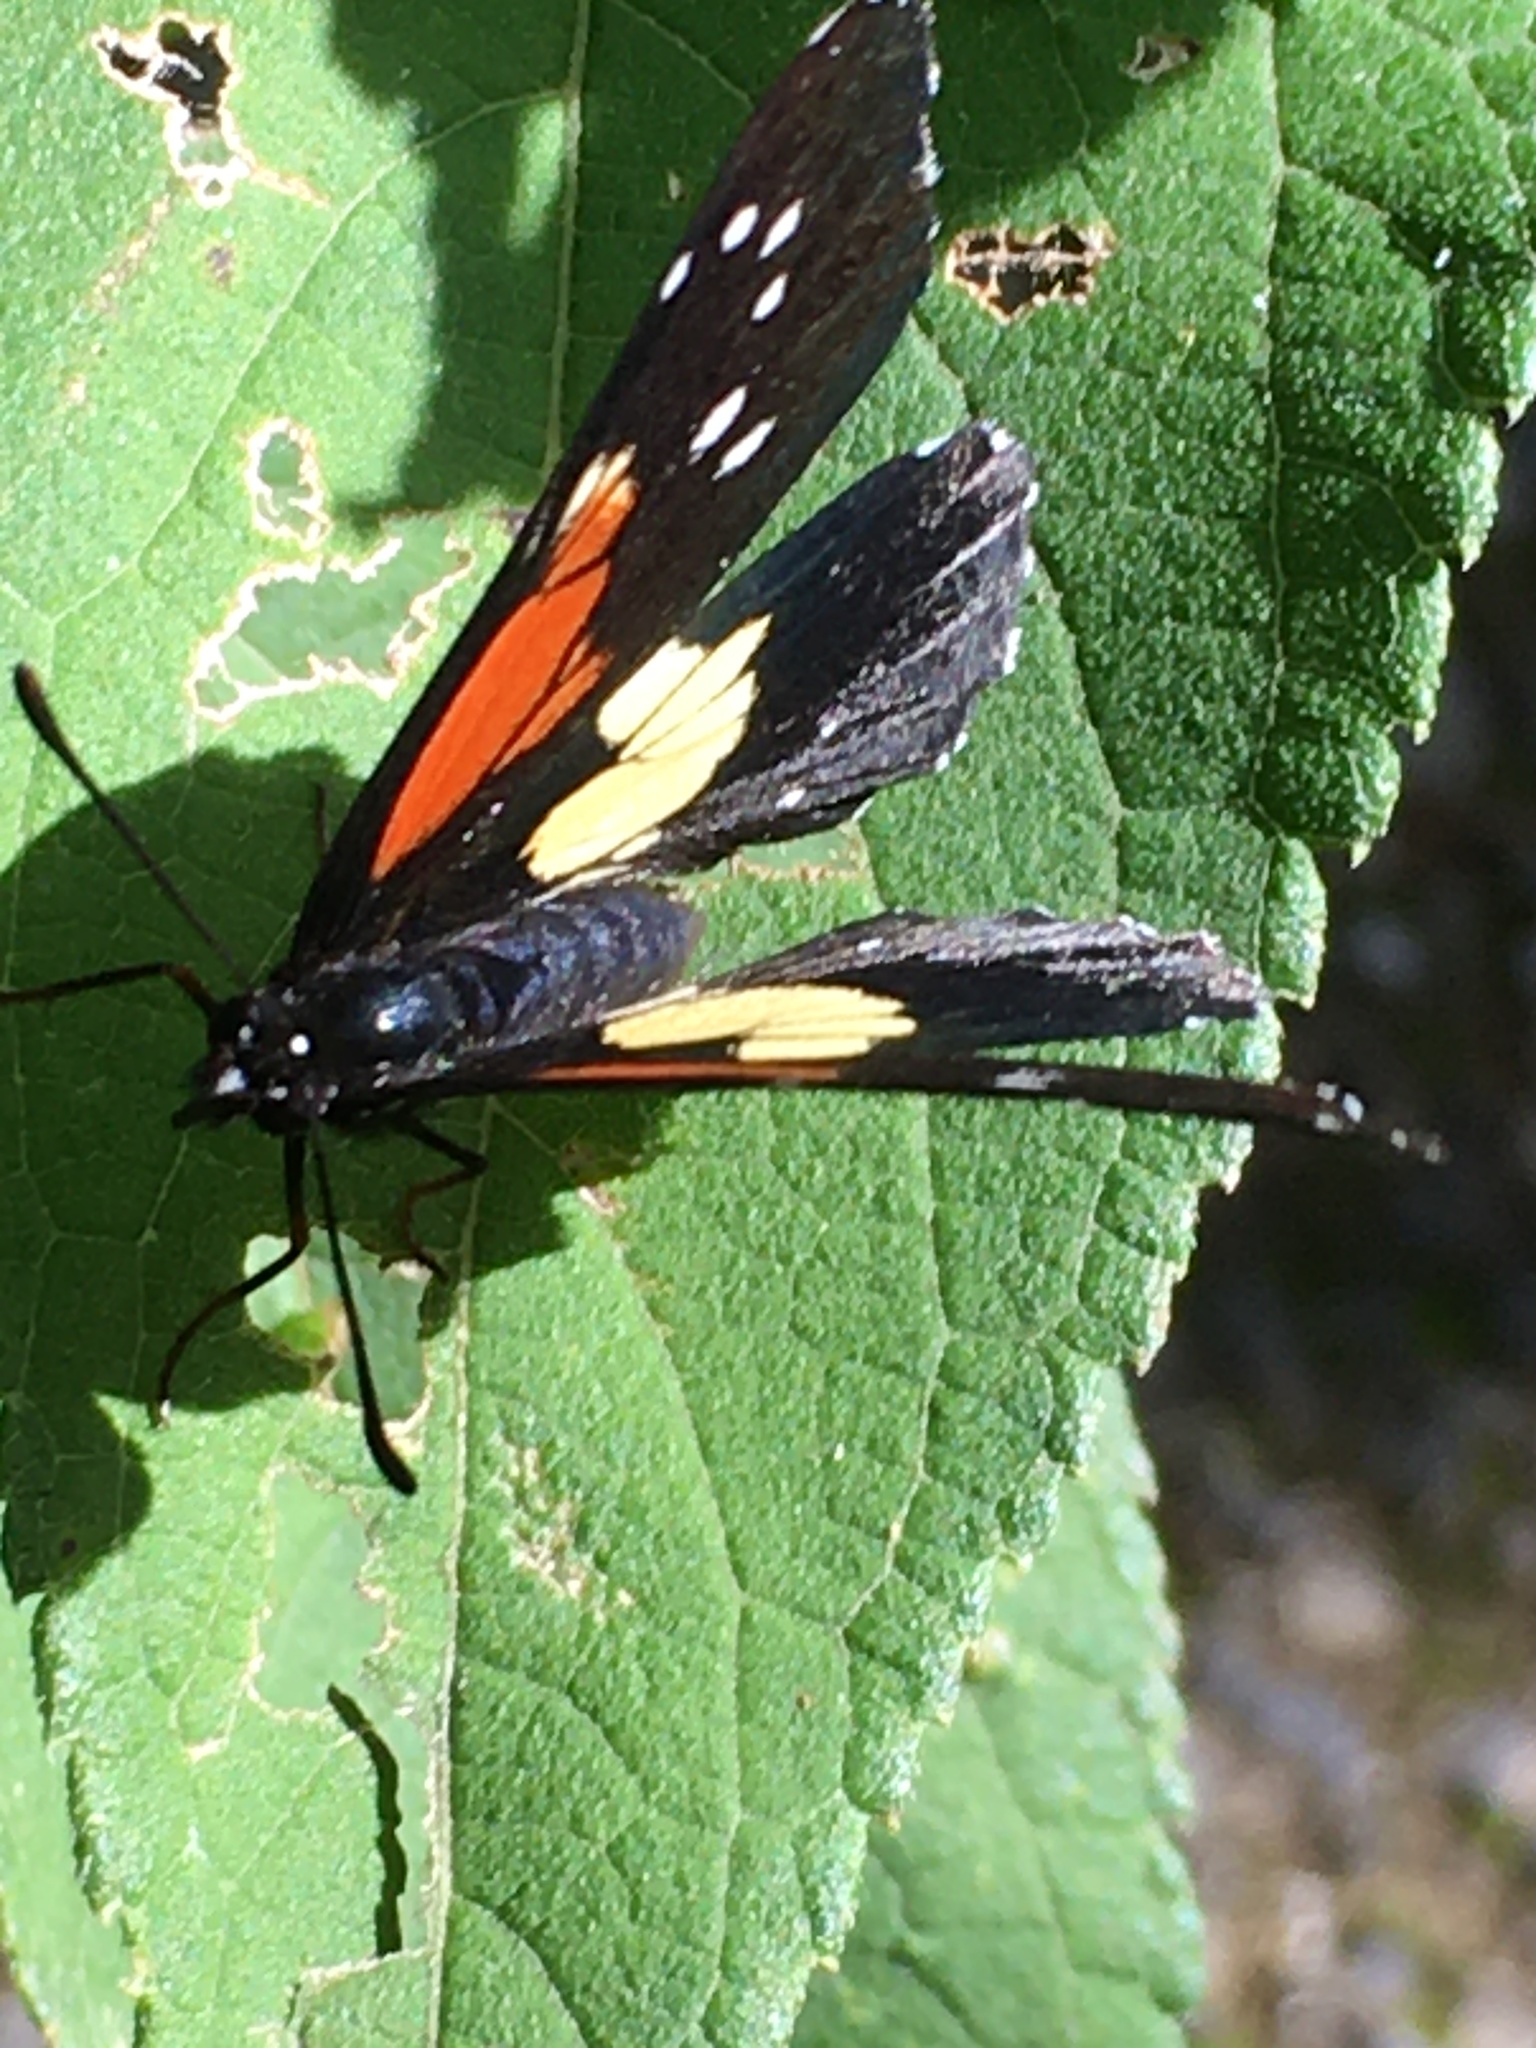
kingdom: Animalia
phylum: Arthropoda
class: Insecta
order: Lepidoptera
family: Nymphalidae
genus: Chlosyne
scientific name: Chlosyne gaudialis
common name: Gaudy checkerspot
